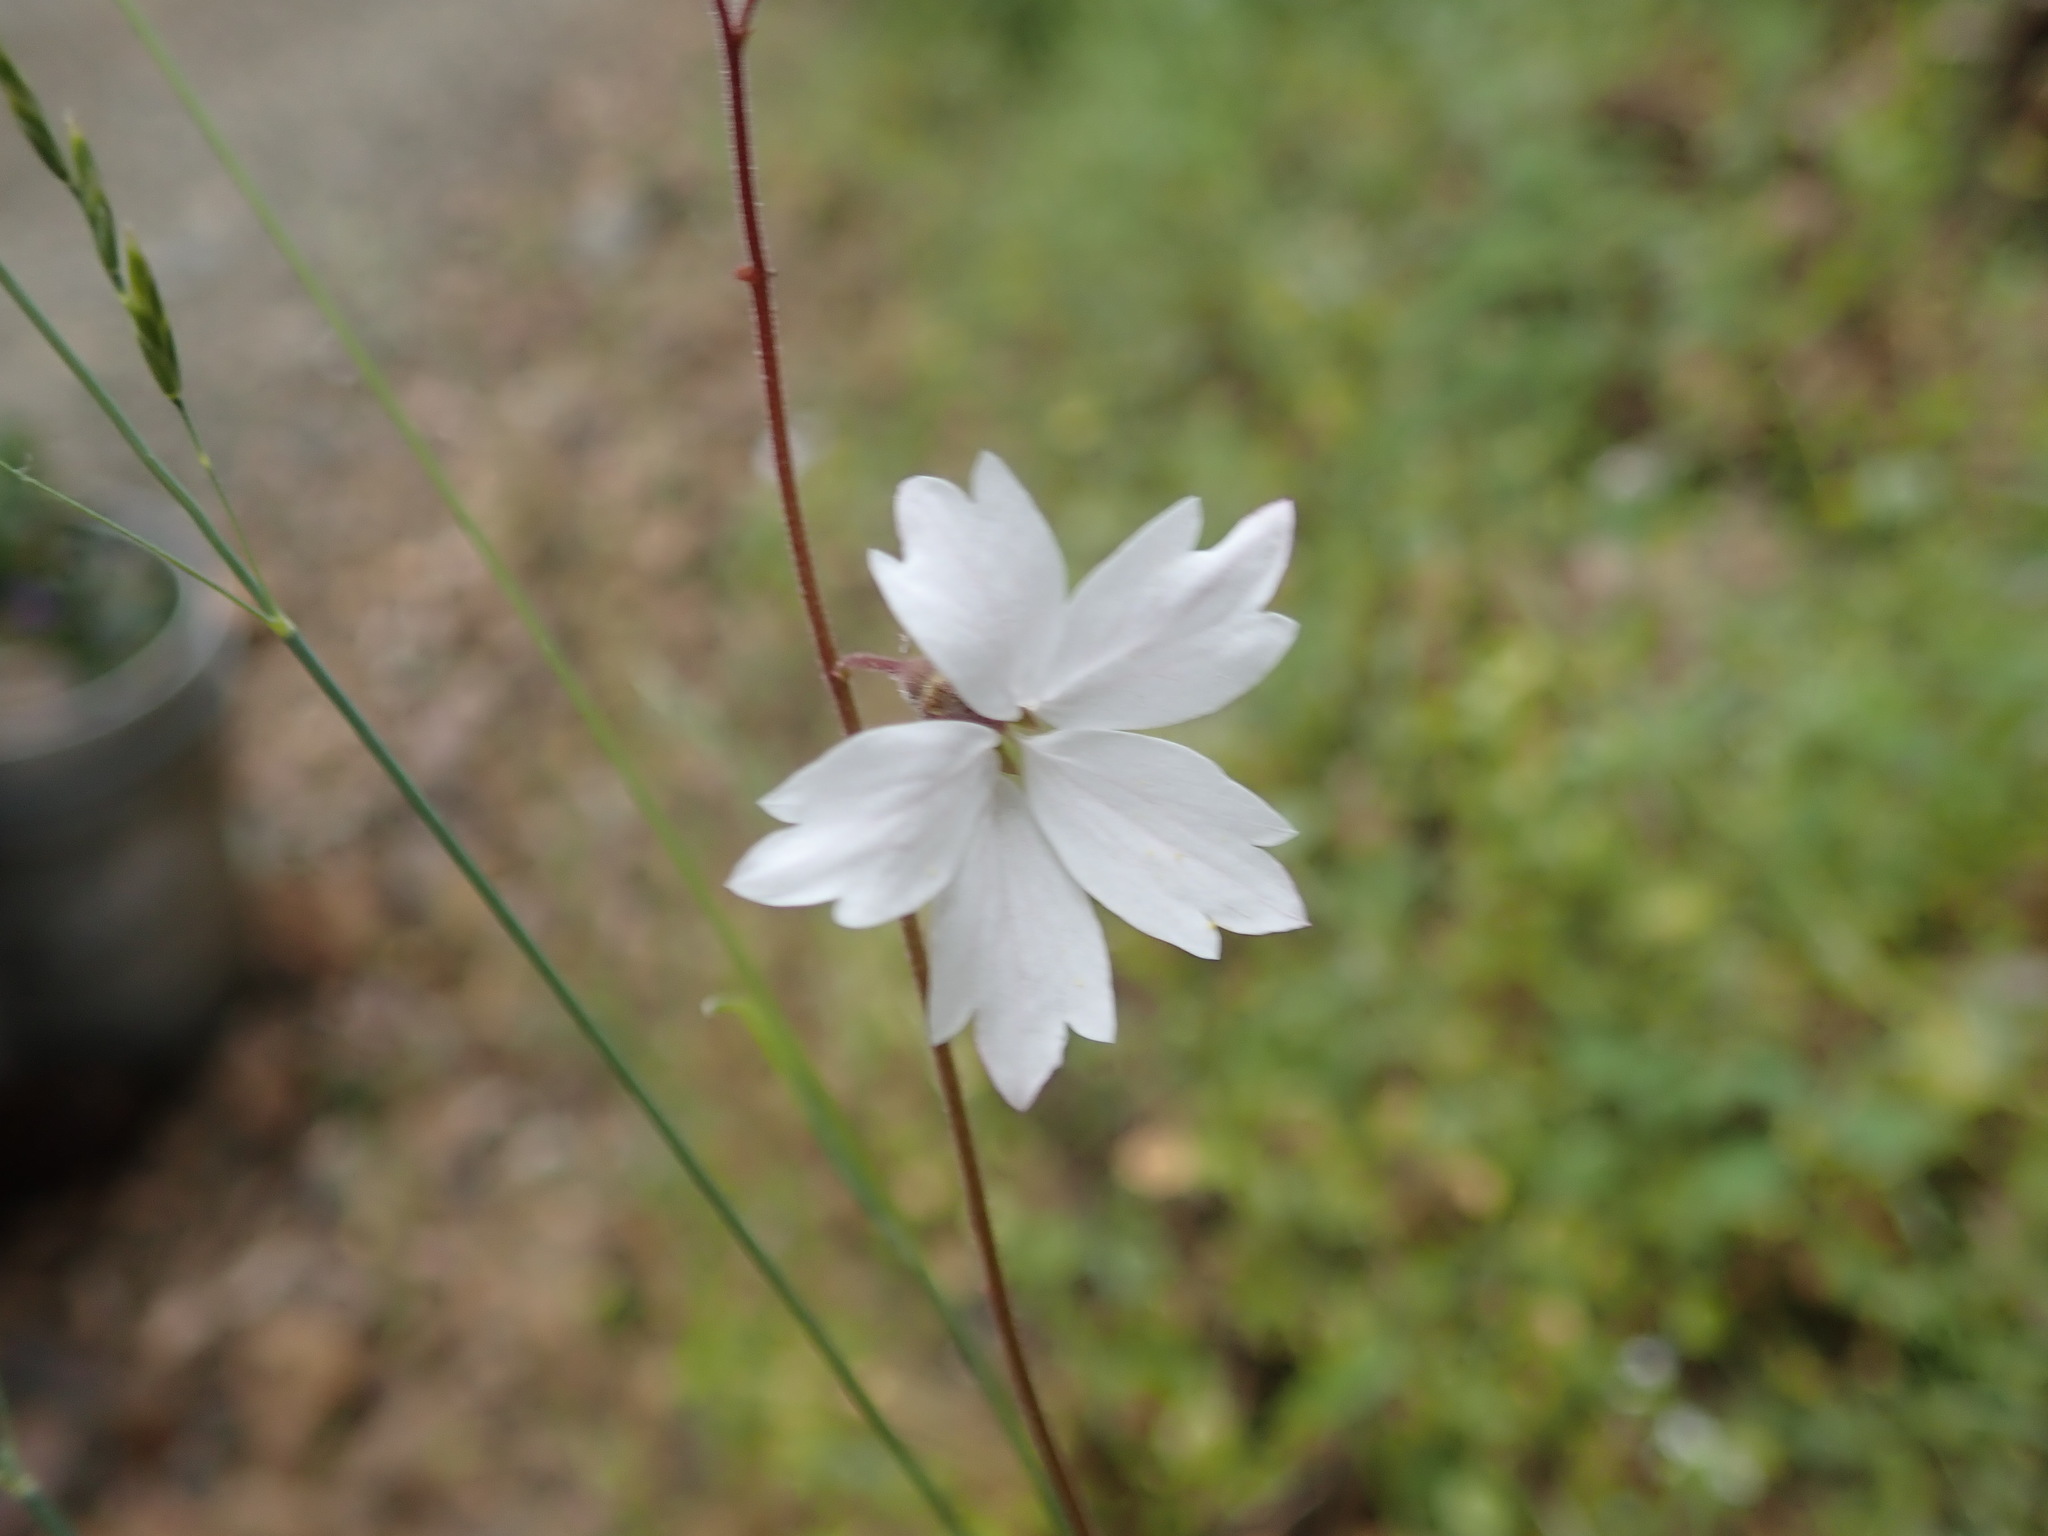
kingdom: Plantae
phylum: Tracheophyta
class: Magnoliopsida
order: Saxifragales
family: Saxifragaceae
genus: Lithophragma
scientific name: Lithophragma affine
